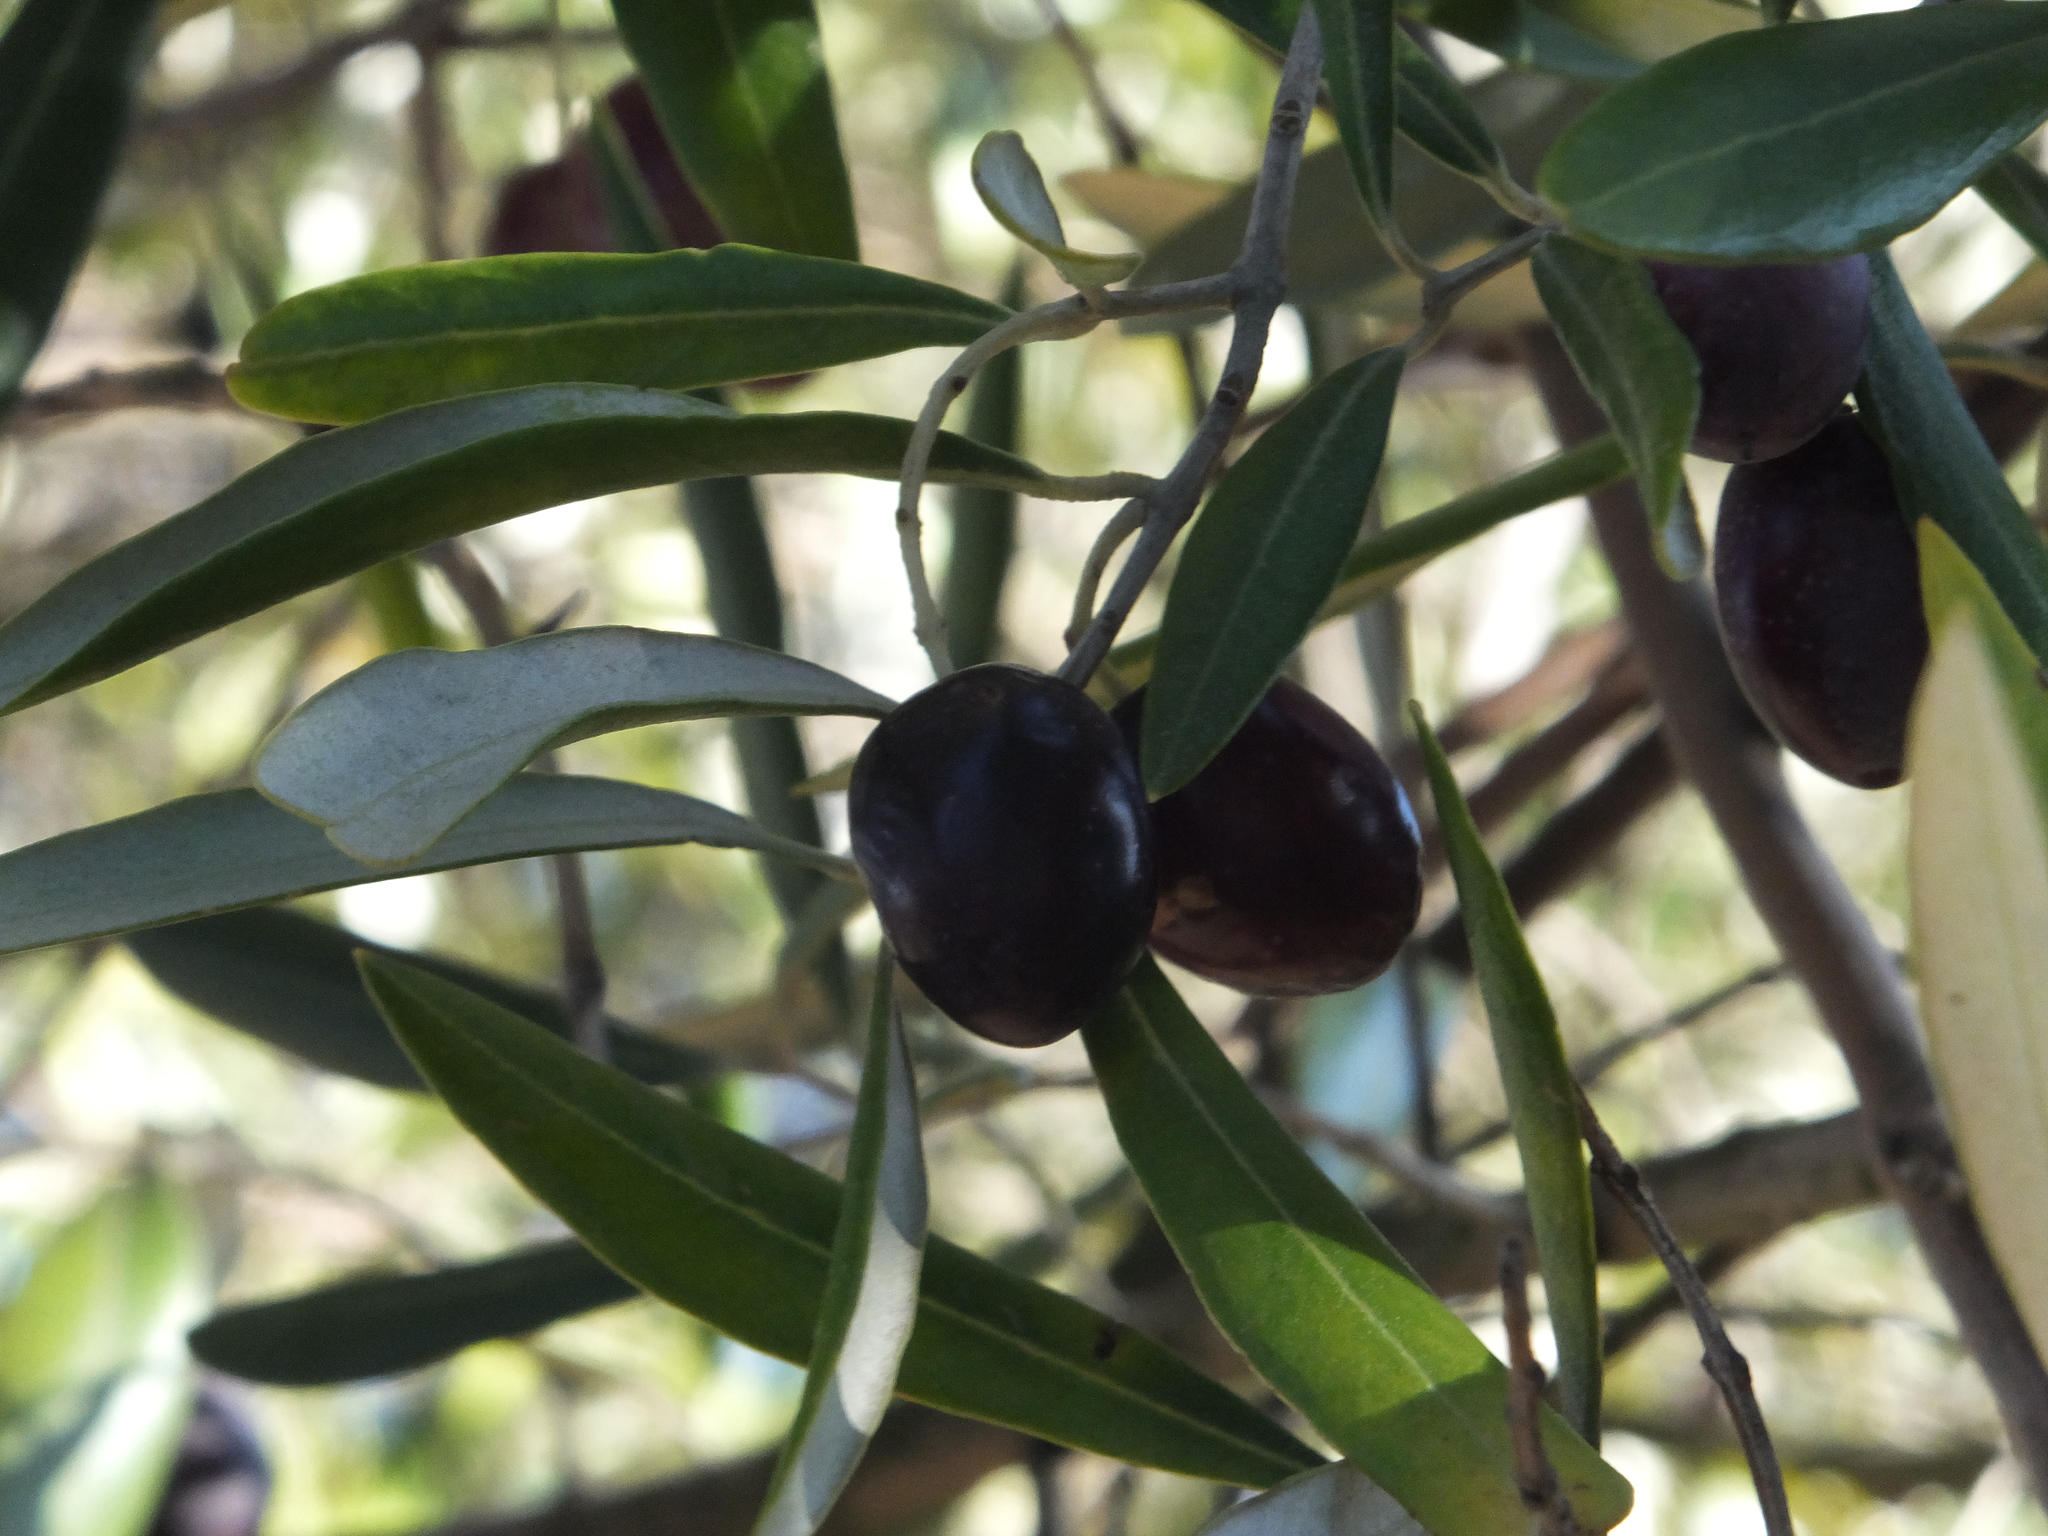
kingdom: Plantae
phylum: Tracheophyta
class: Magnoliopsida
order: Lamiales
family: Oleaceae
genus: Olea
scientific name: Olea europaea
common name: Olive
